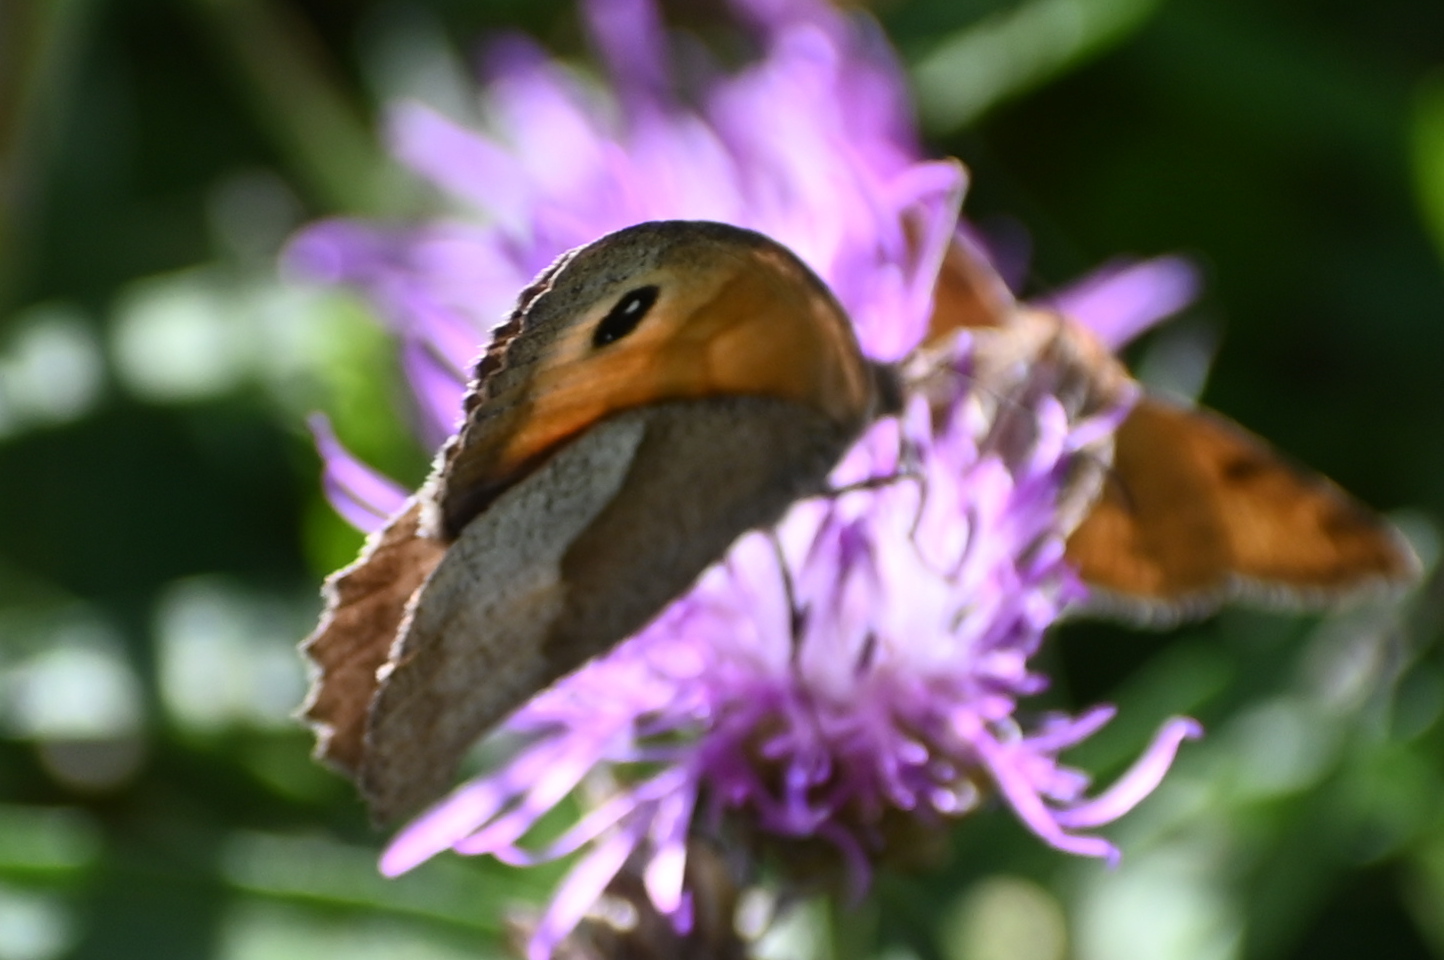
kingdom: Animalia
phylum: Arthropoda
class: Insecta
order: Lepidoptera
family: Nymphalidae
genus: Maniola
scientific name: Maniola jurtina
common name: Meadow brown
